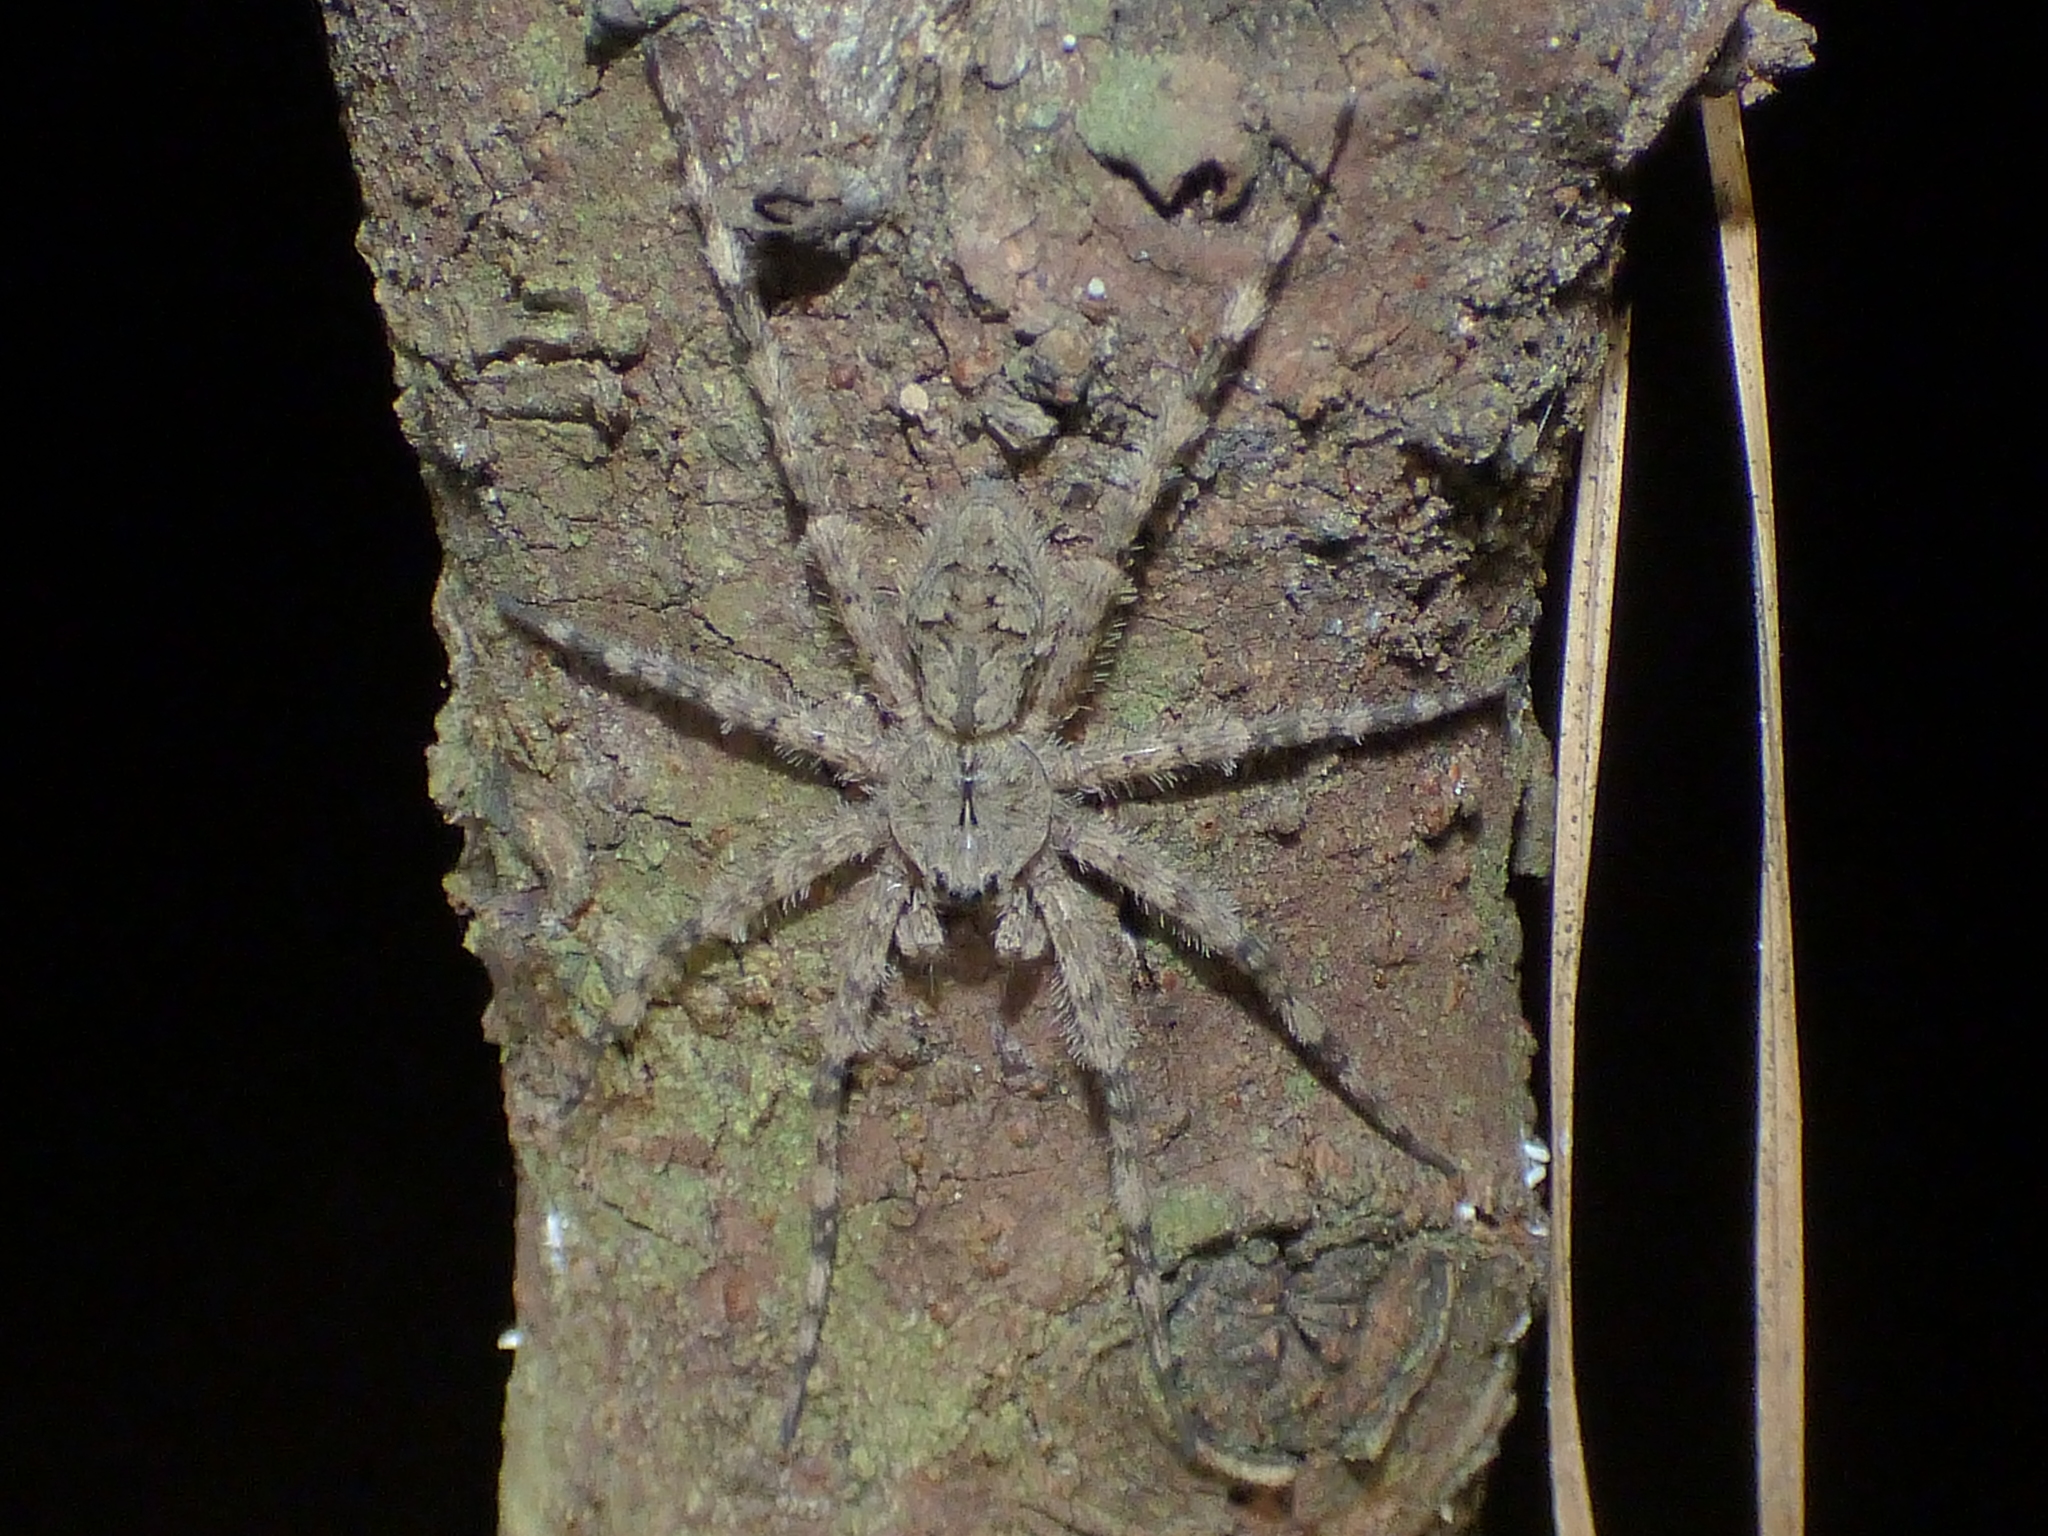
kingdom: Animalia
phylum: Arthropoda
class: Arachnida
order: Araneae
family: Pisauridae
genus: Dolomedes
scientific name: Dolomedes albineus
